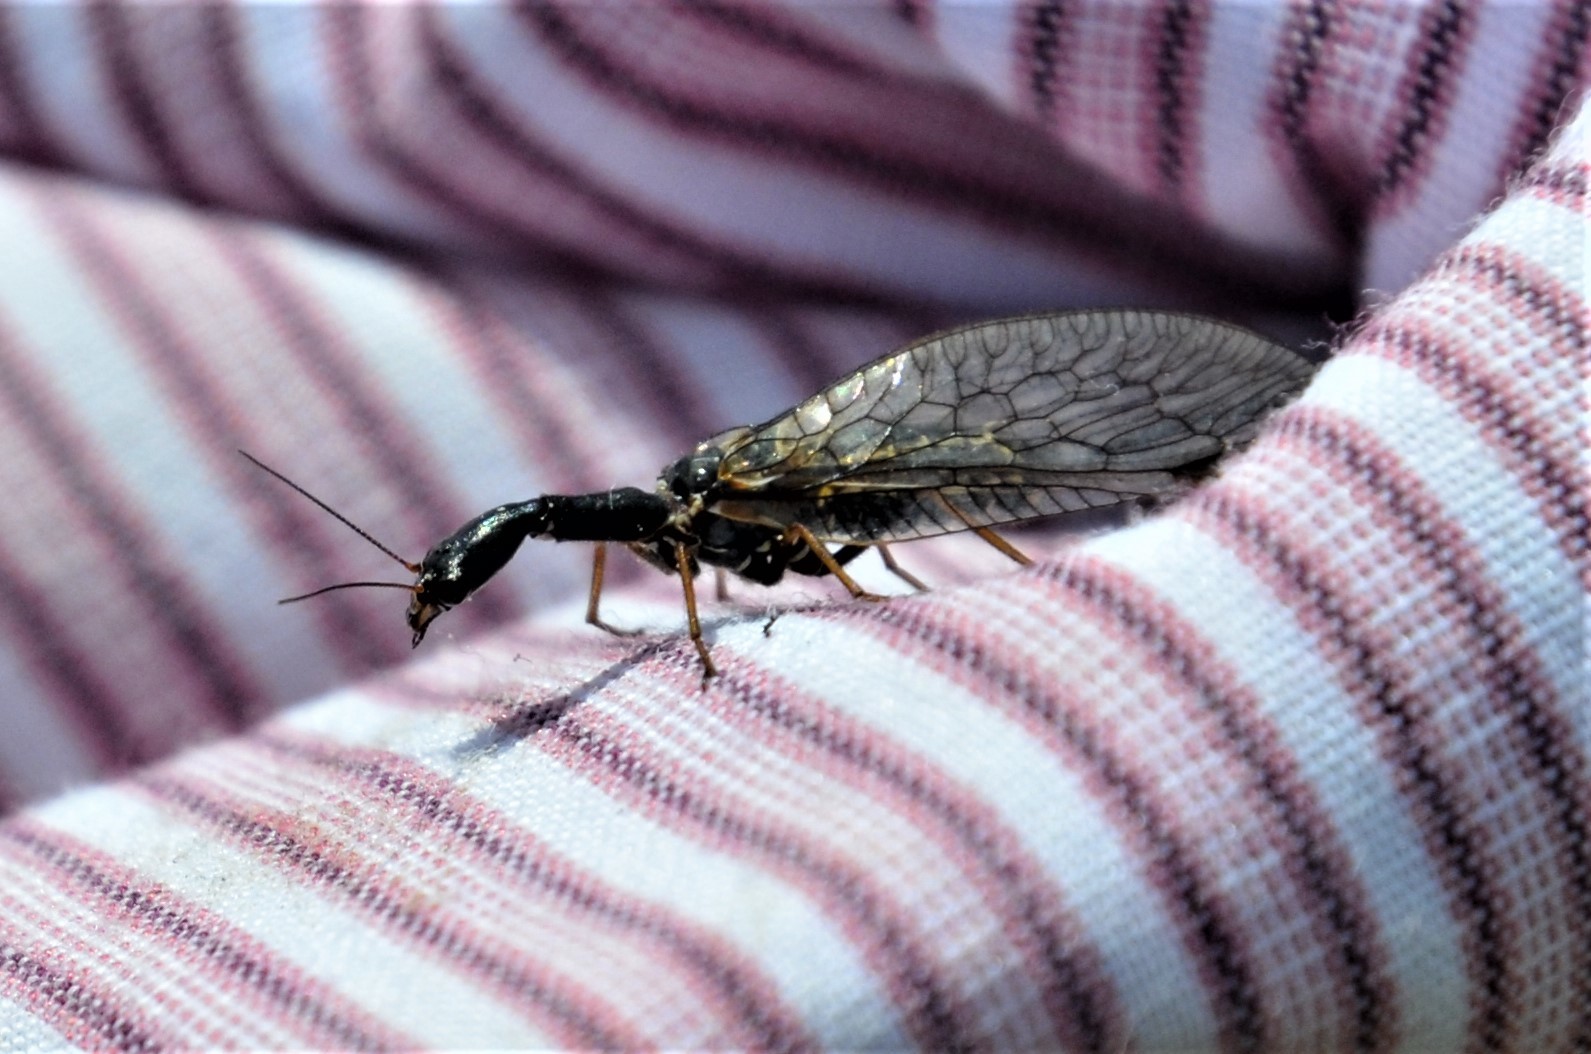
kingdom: Animalia
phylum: Arthropoda
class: Insecta
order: Raphidioptera
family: Raphidiidae
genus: Phaeostigma
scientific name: Phaeostigma notatum
